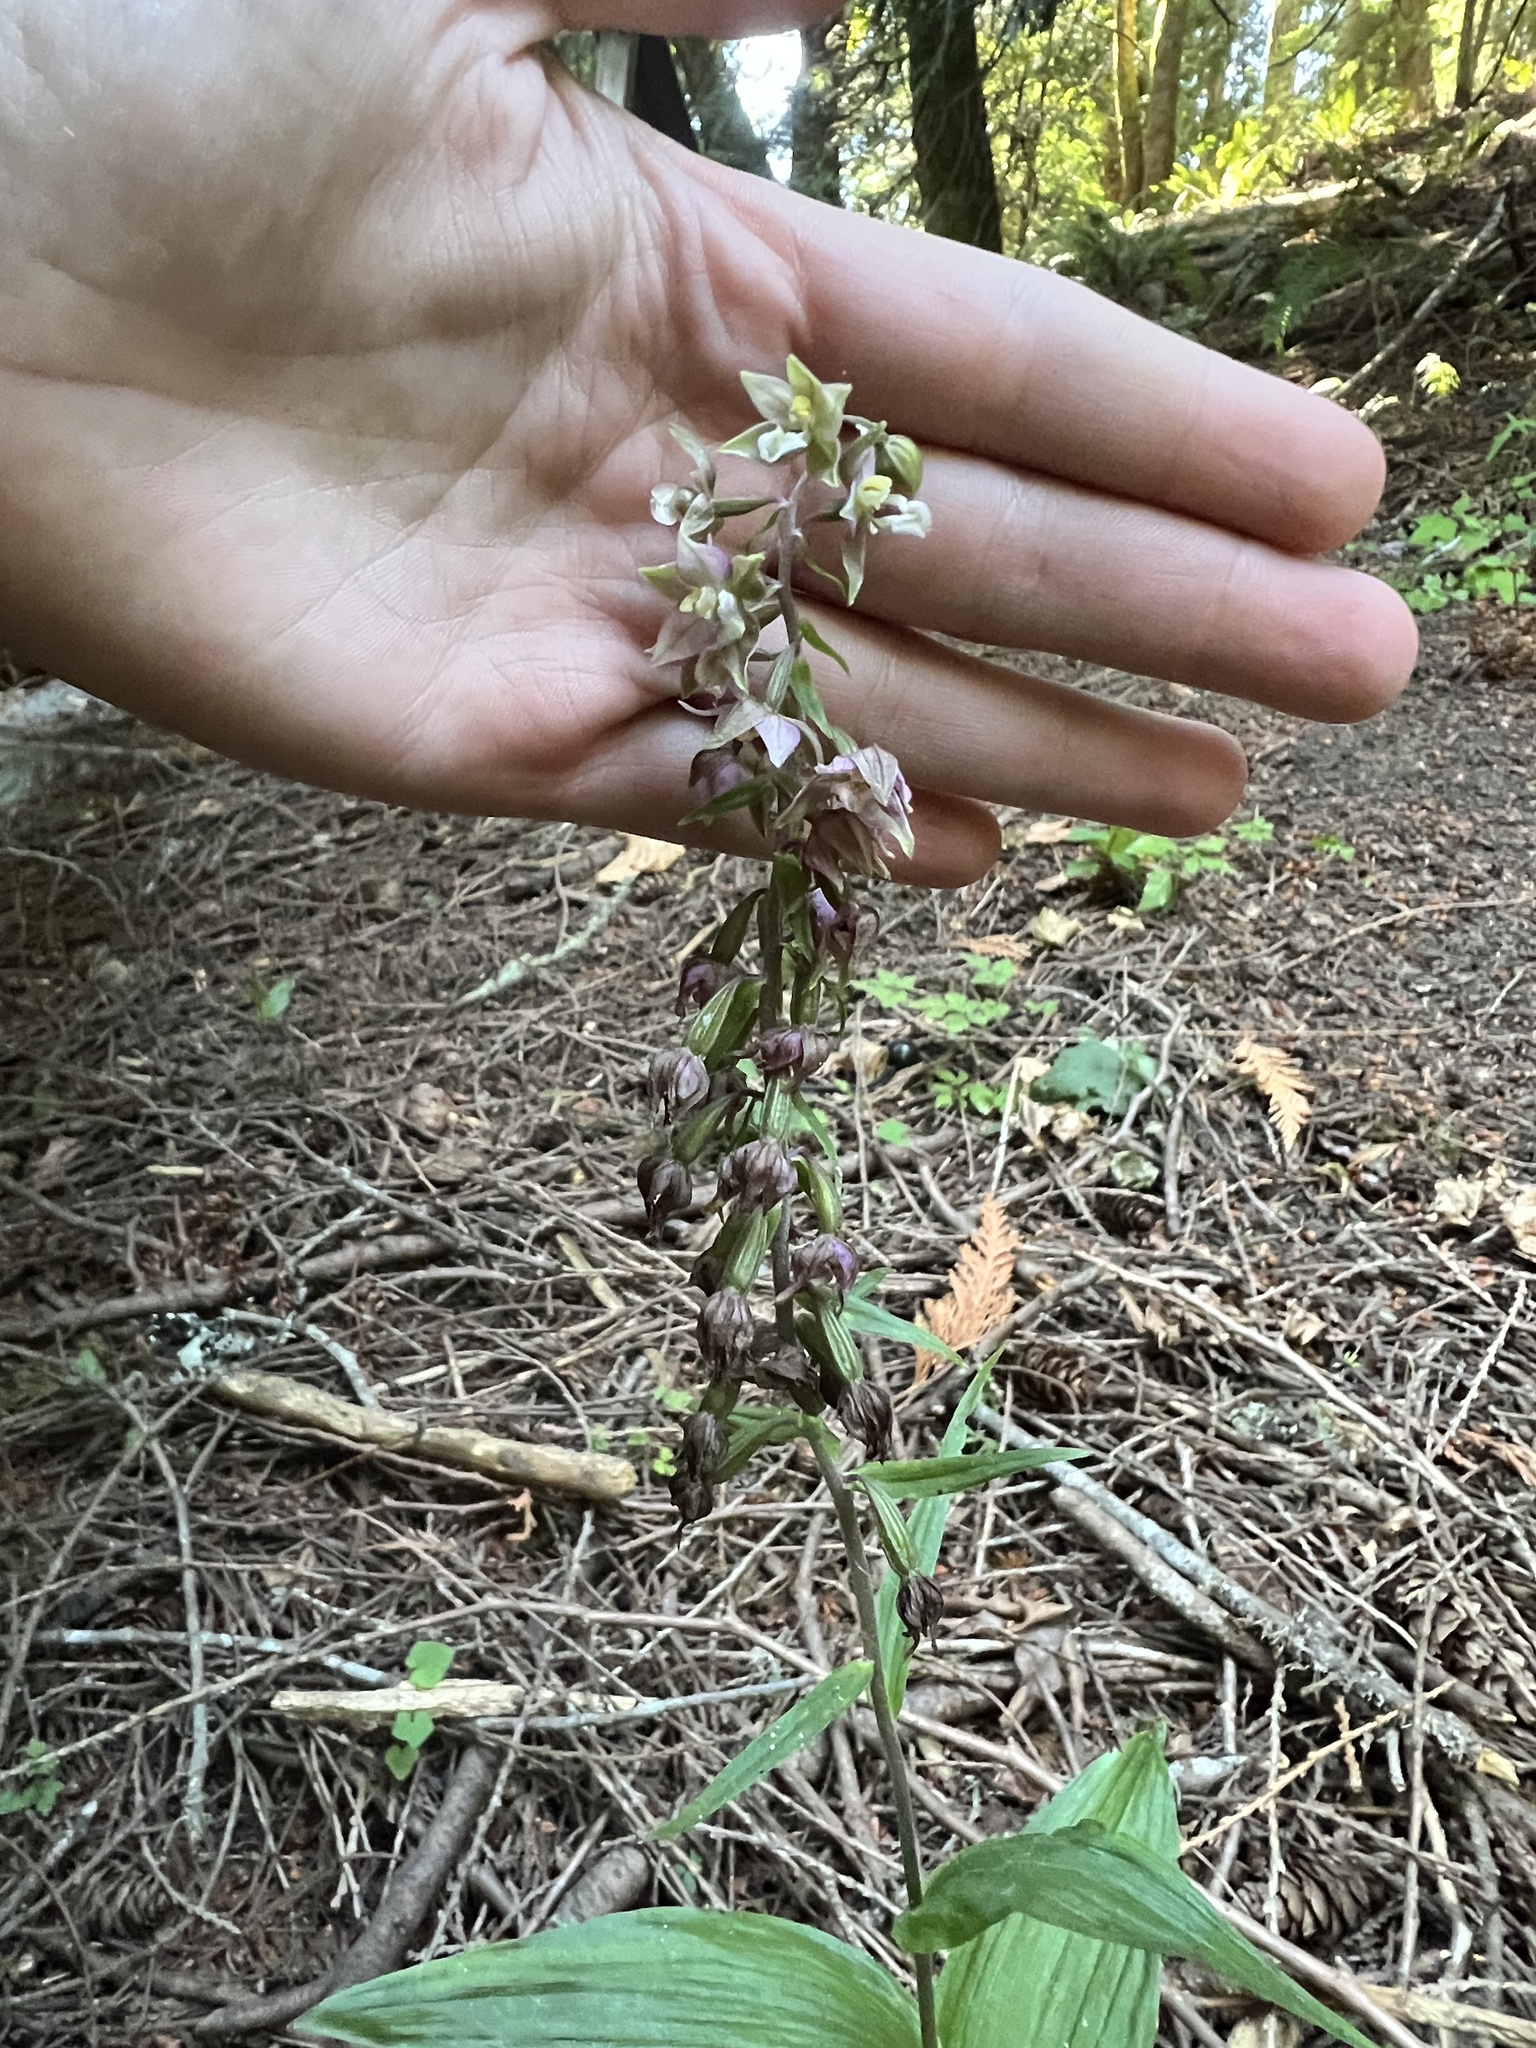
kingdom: Plantae
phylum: Tracheophyta
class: Liliopsida
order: Asparagales
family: Orchidaceae
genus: Epipactis
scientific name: Epipactis helleborine
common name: Broad-leaved helleborine
